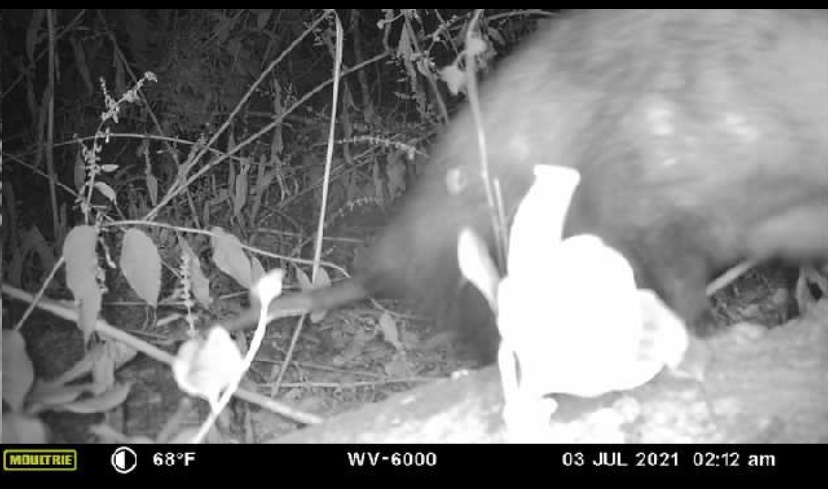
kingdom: Animalia
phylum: Chordata
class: Mammalia
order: Didelphimorphia
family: Didelphidae
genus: Didelphis
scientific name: Didelphis virginiana
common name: Virginia opossum
